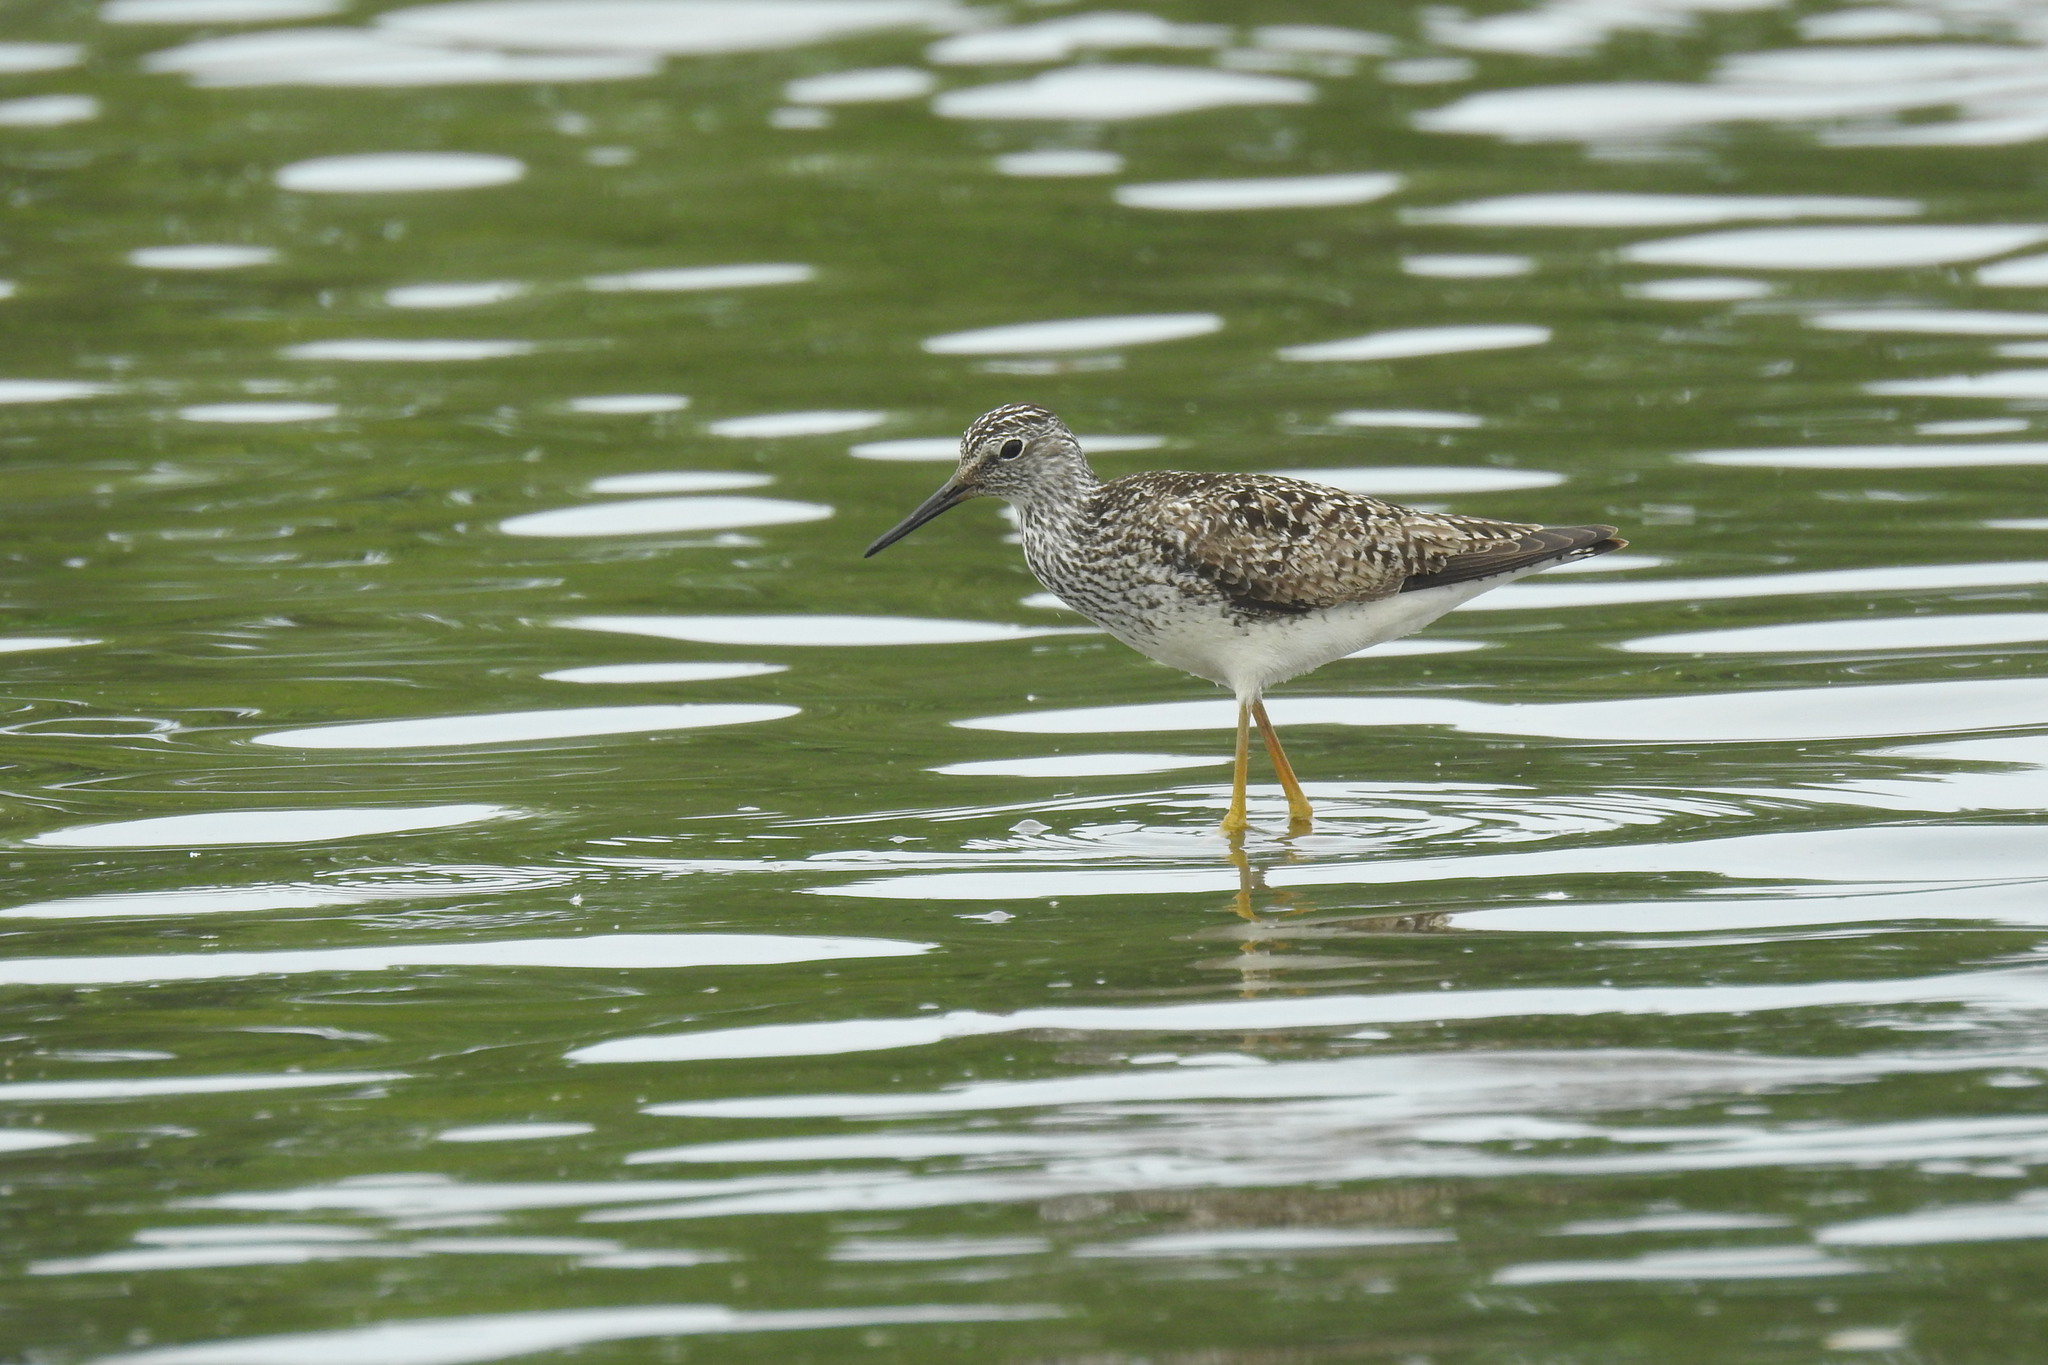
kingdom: Animalia
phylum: Chordata
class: Aves
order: Charadriiformes
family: Scolopacidae
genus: Tringa
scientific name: Tringa flavipes
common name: Lesser yellowlegs
